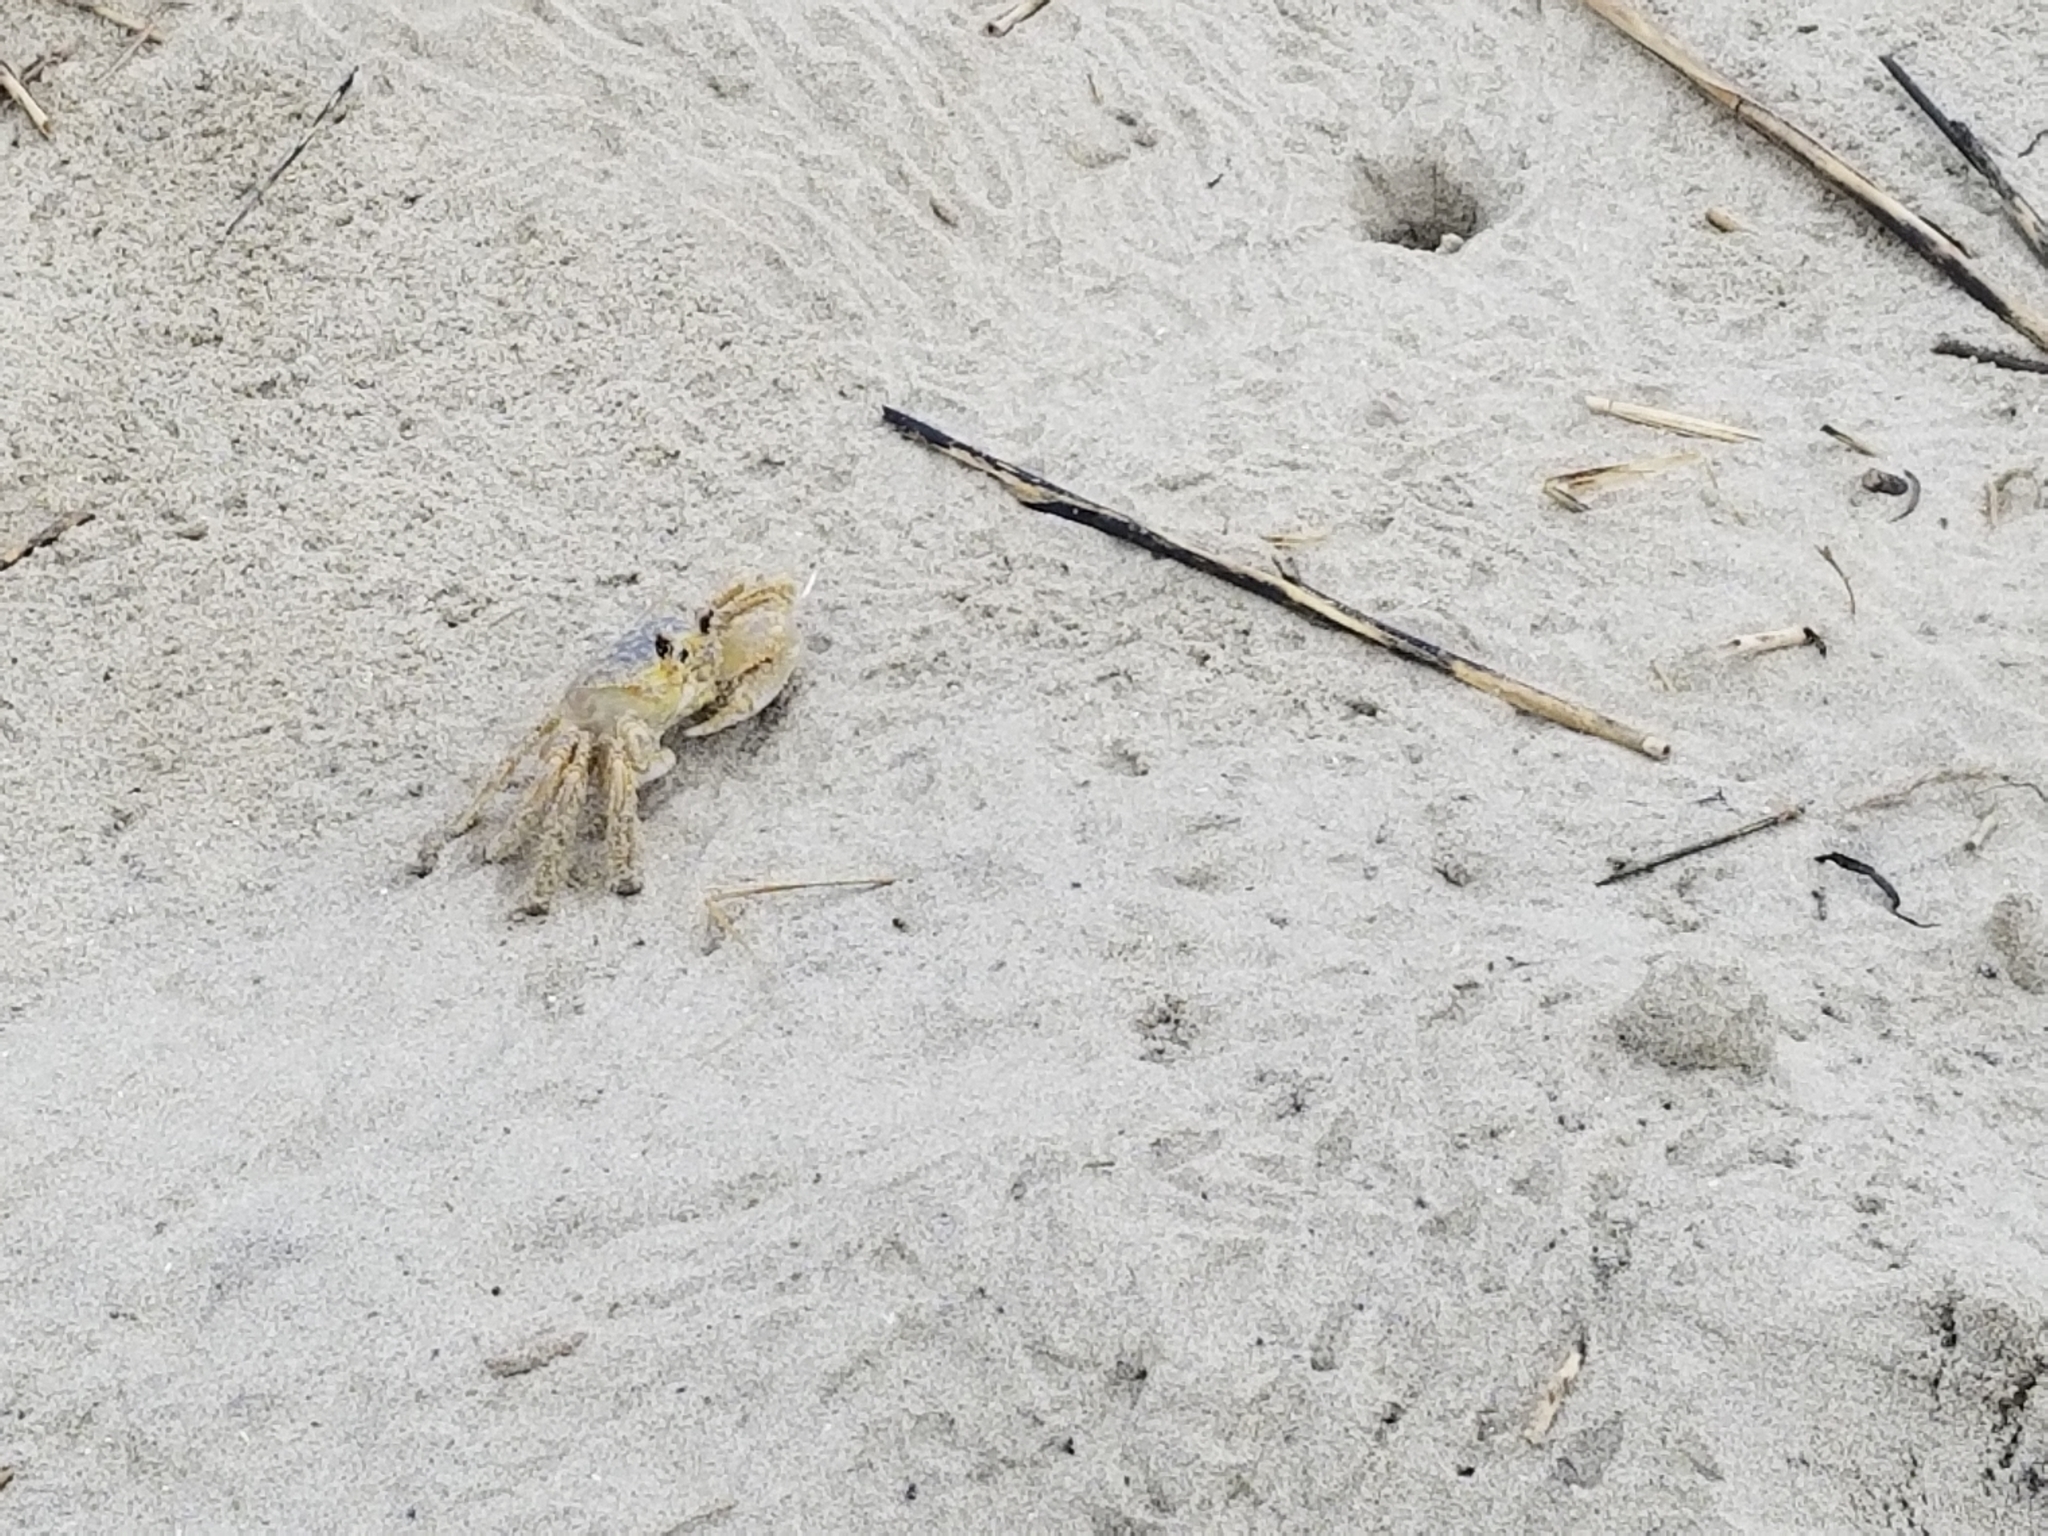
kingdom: Animalia
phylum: Arthropoda
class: Malacostraca
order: Decapoda
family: Ocypodidae
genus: Ocypode
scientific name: Ocypode quadrata
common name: Ghost crab
